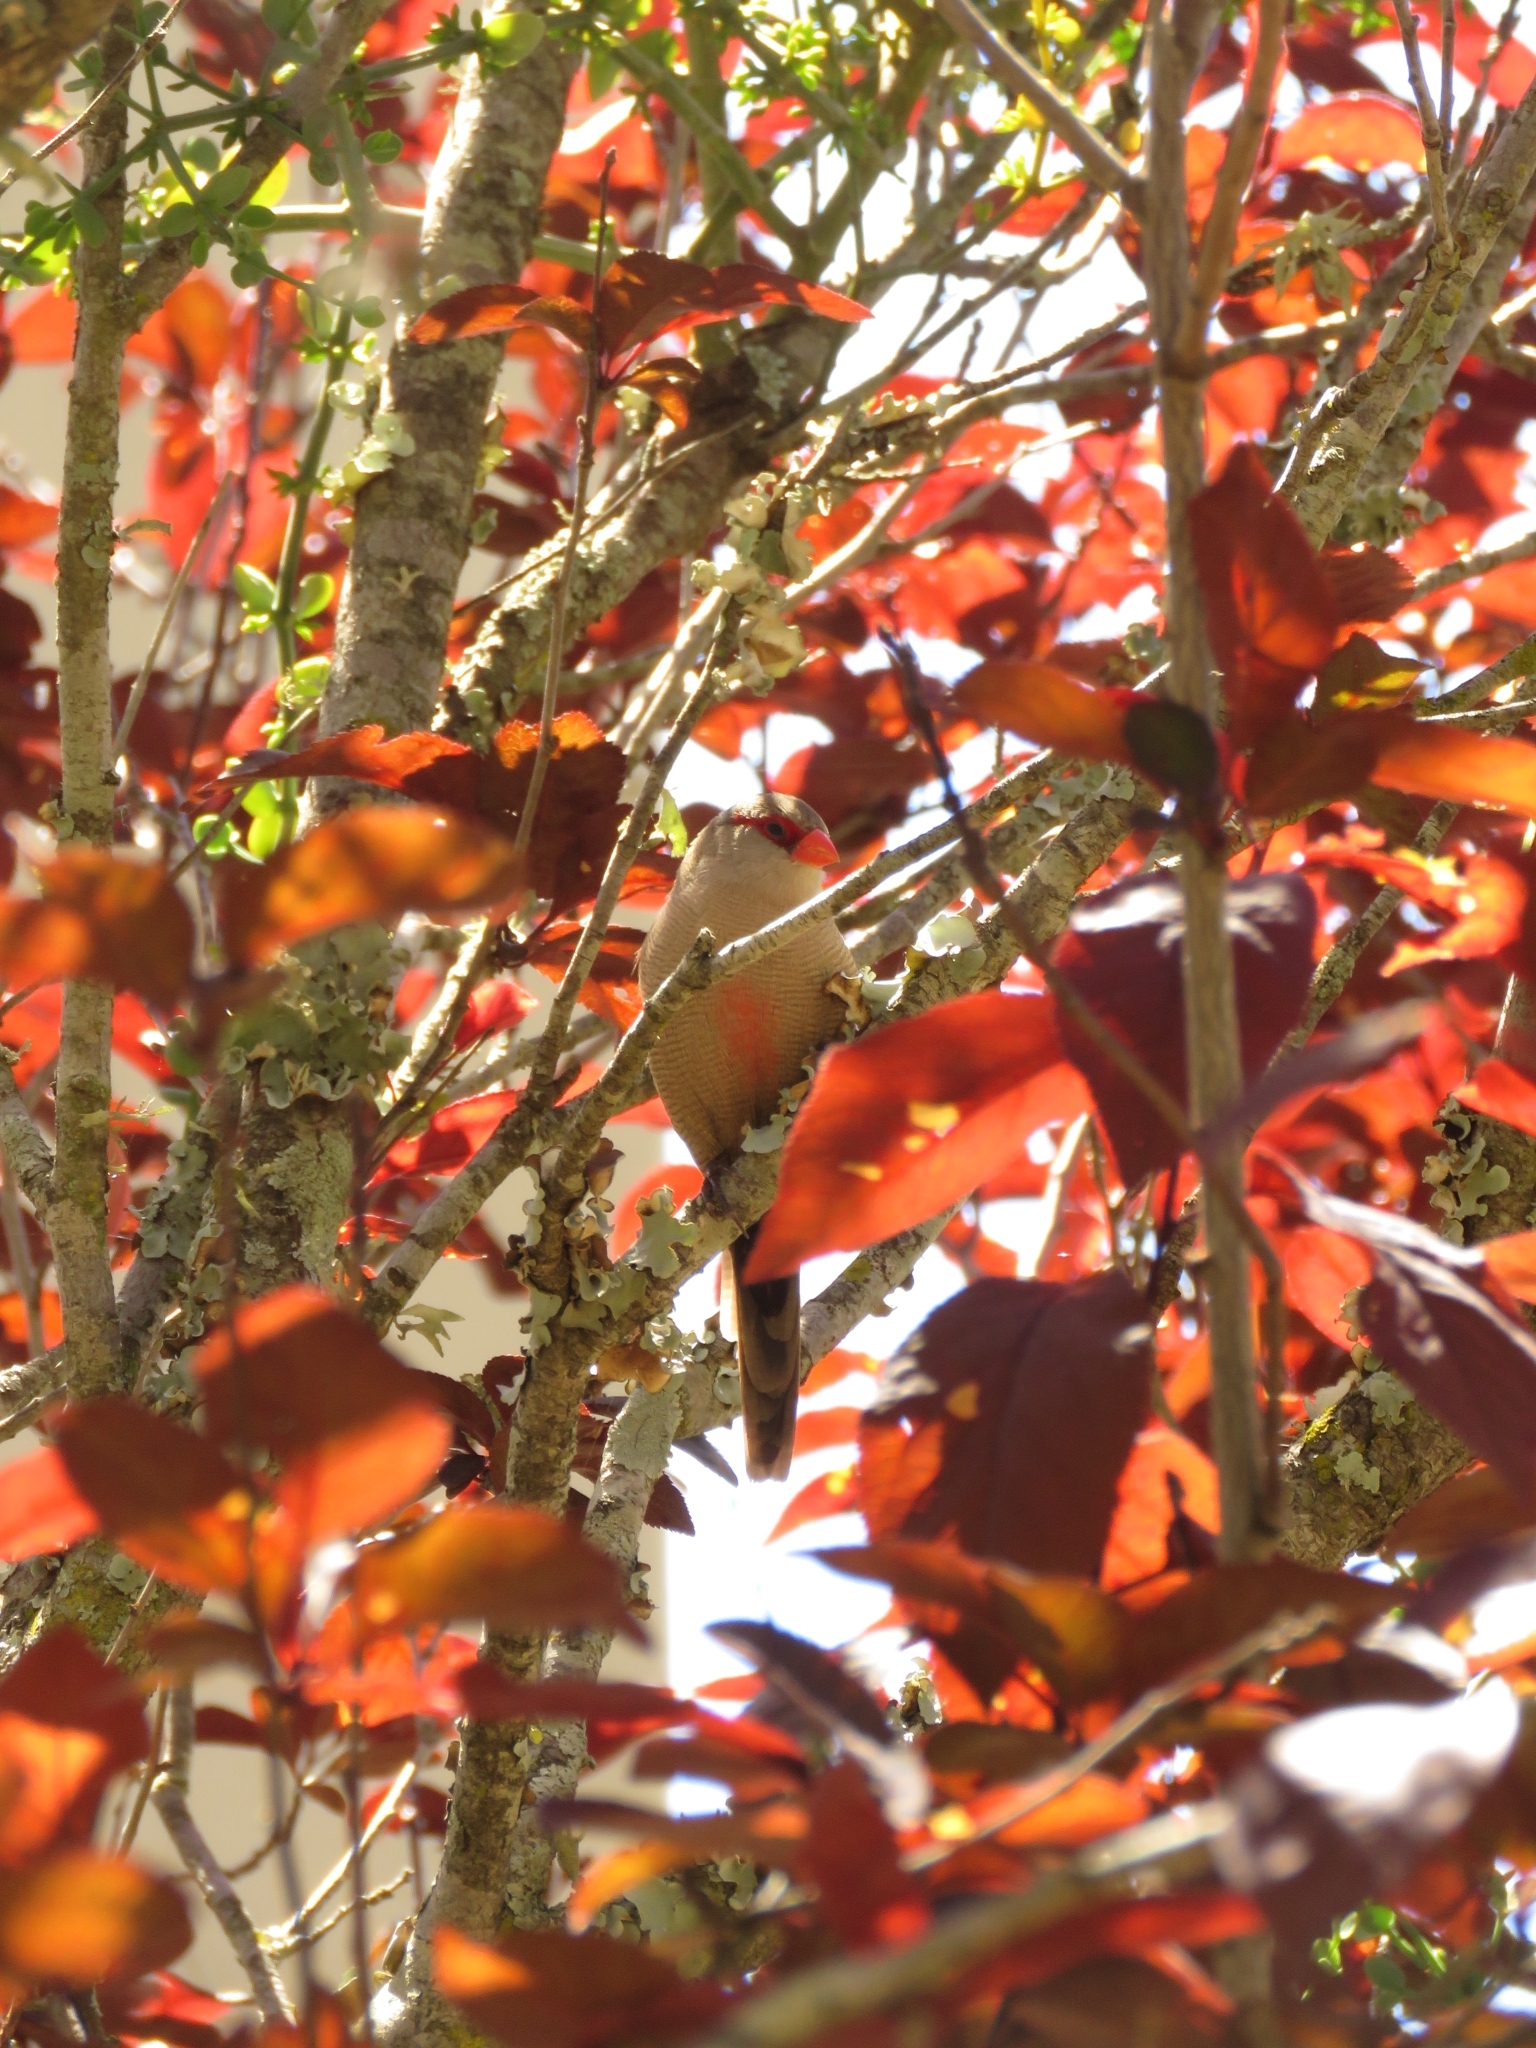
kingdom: Animalia
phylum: Chordata
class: Aves
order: Passeriformes
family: Estrildidae
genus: Estrilda
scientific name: Estrilda astrild
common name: Common waxbill
